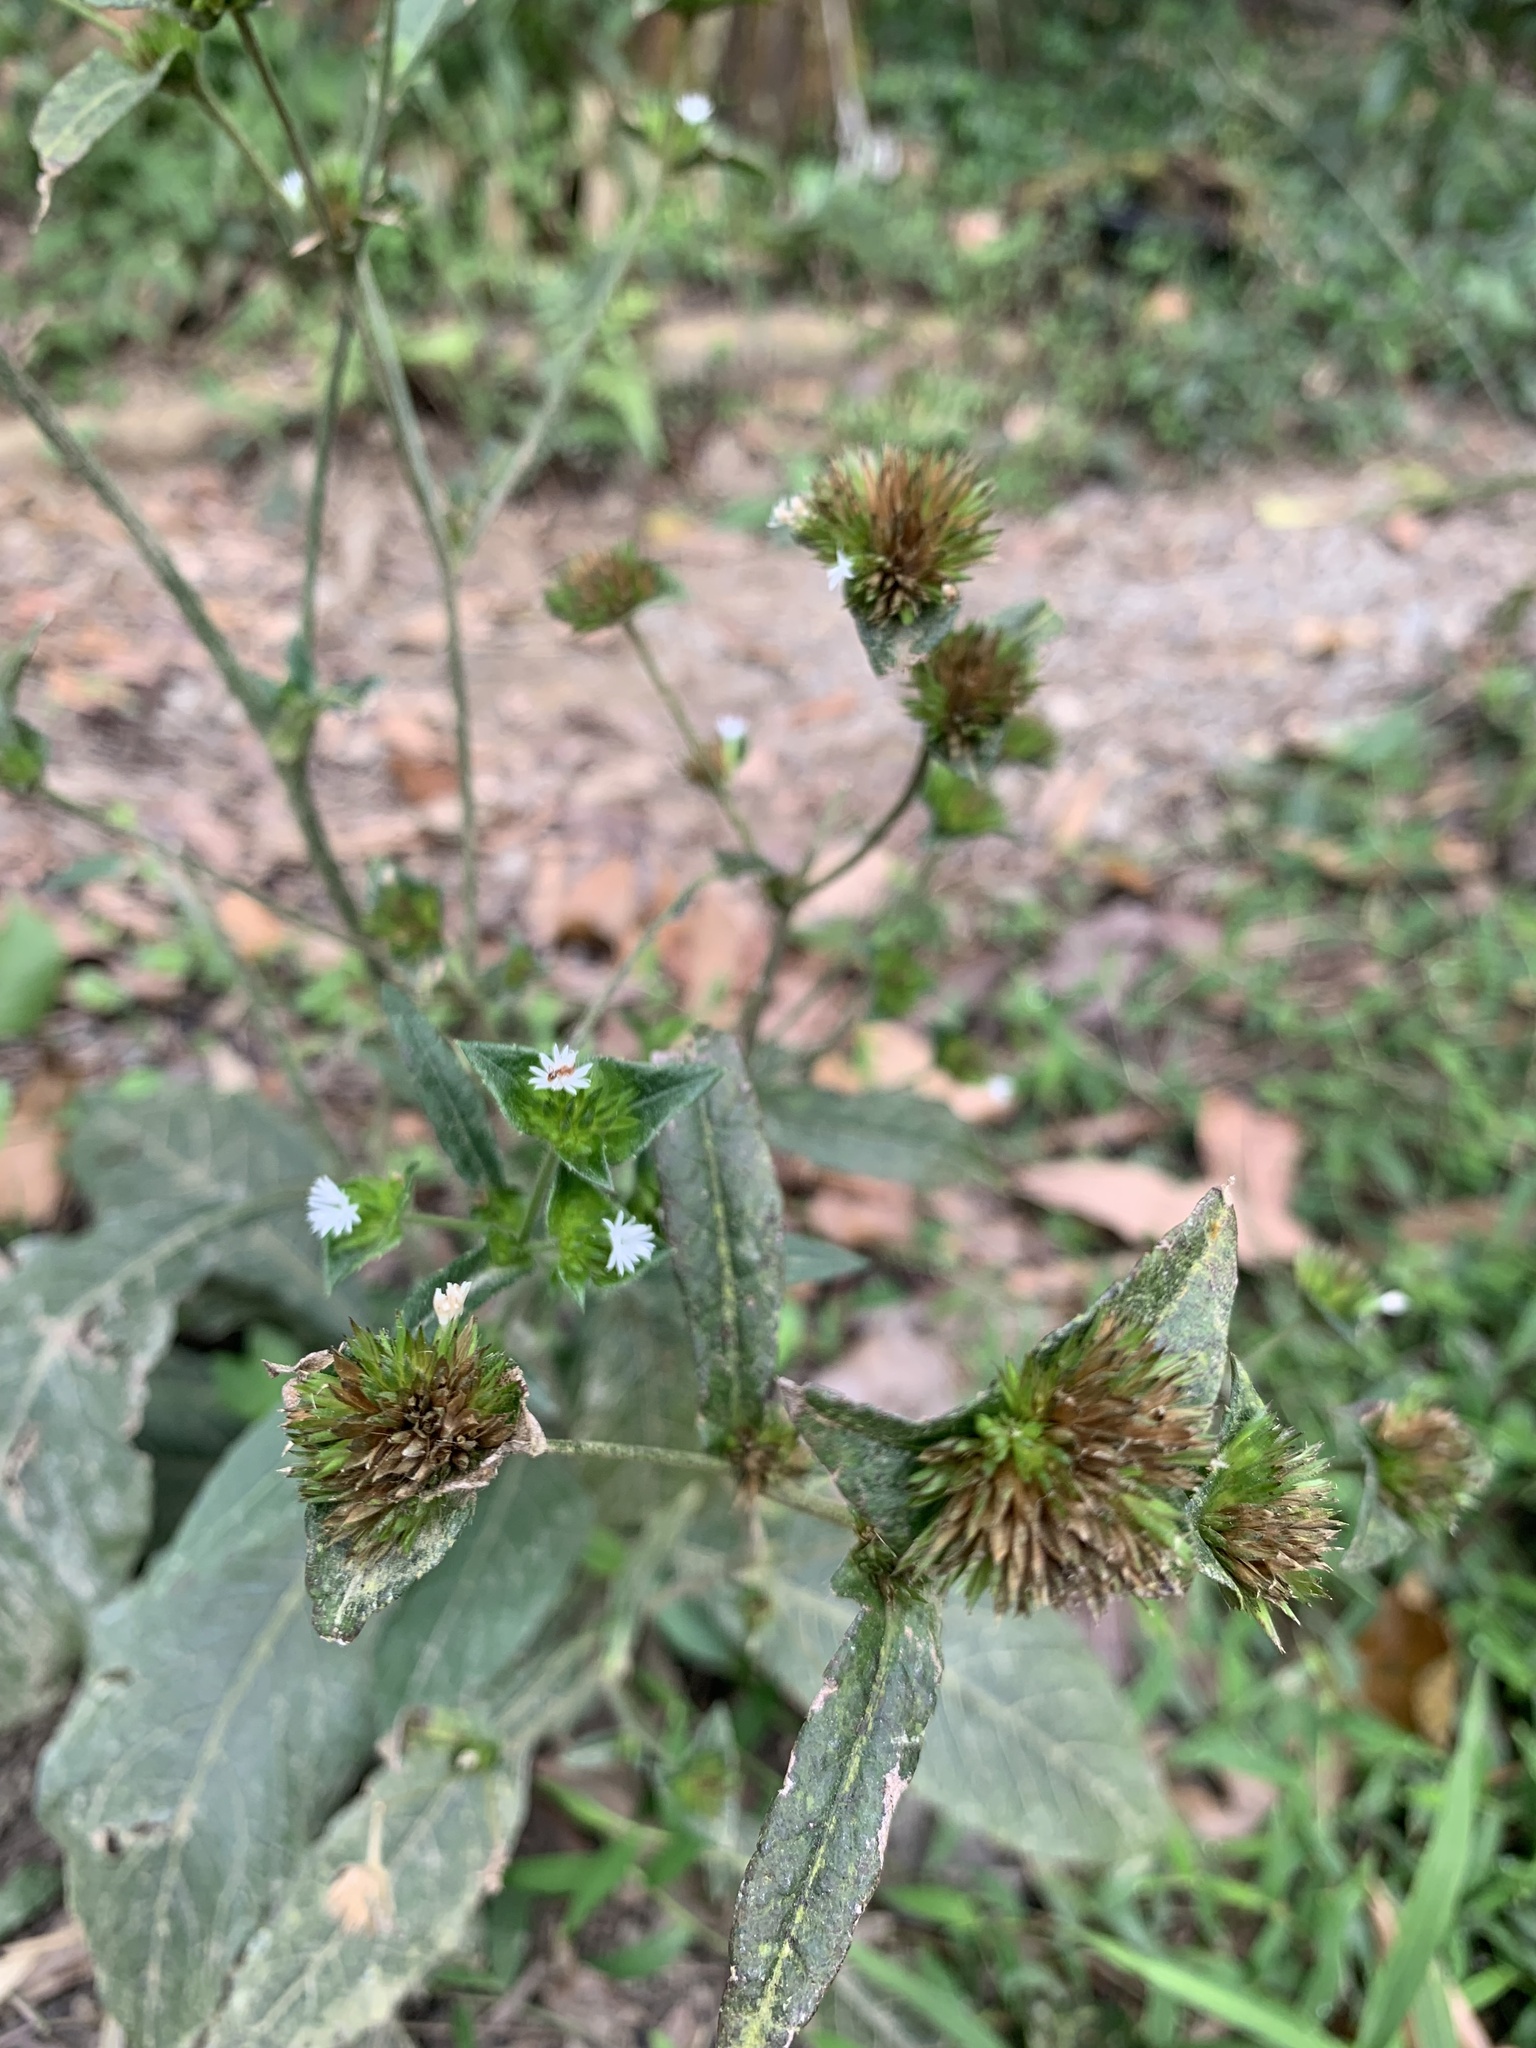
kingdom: Plantae
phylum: Tracheophyta
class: Magnoliopsida
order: Asterales
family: Asteraceae
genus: Elephantopus
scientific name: Elephantopus mollis
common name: Soft elephantsfoot
